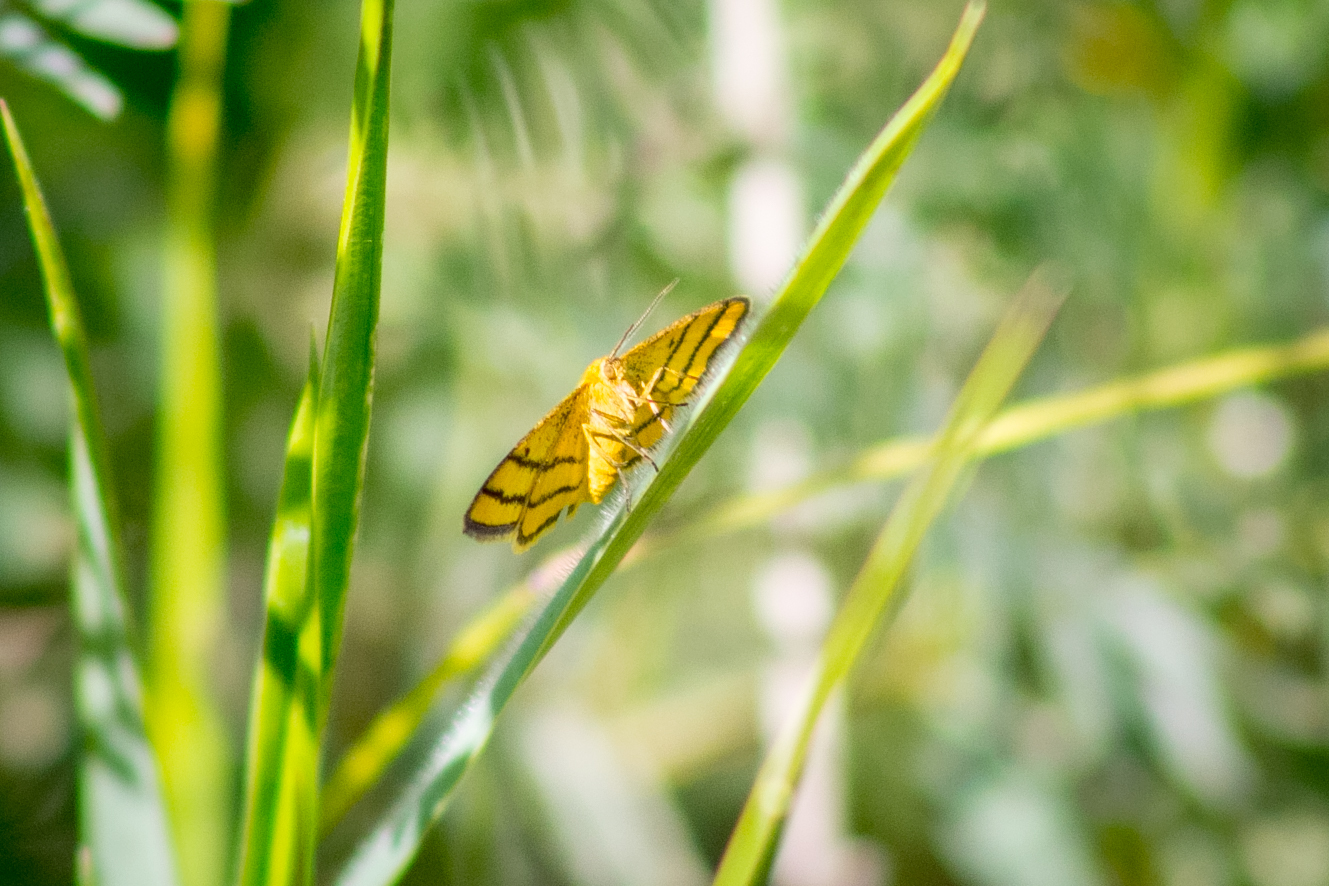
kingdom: Animalia
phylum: Arthropoda
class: Insecta
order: Lepidoptera
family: Geometridae
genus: Idaea
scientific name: Idaea aureolaria
